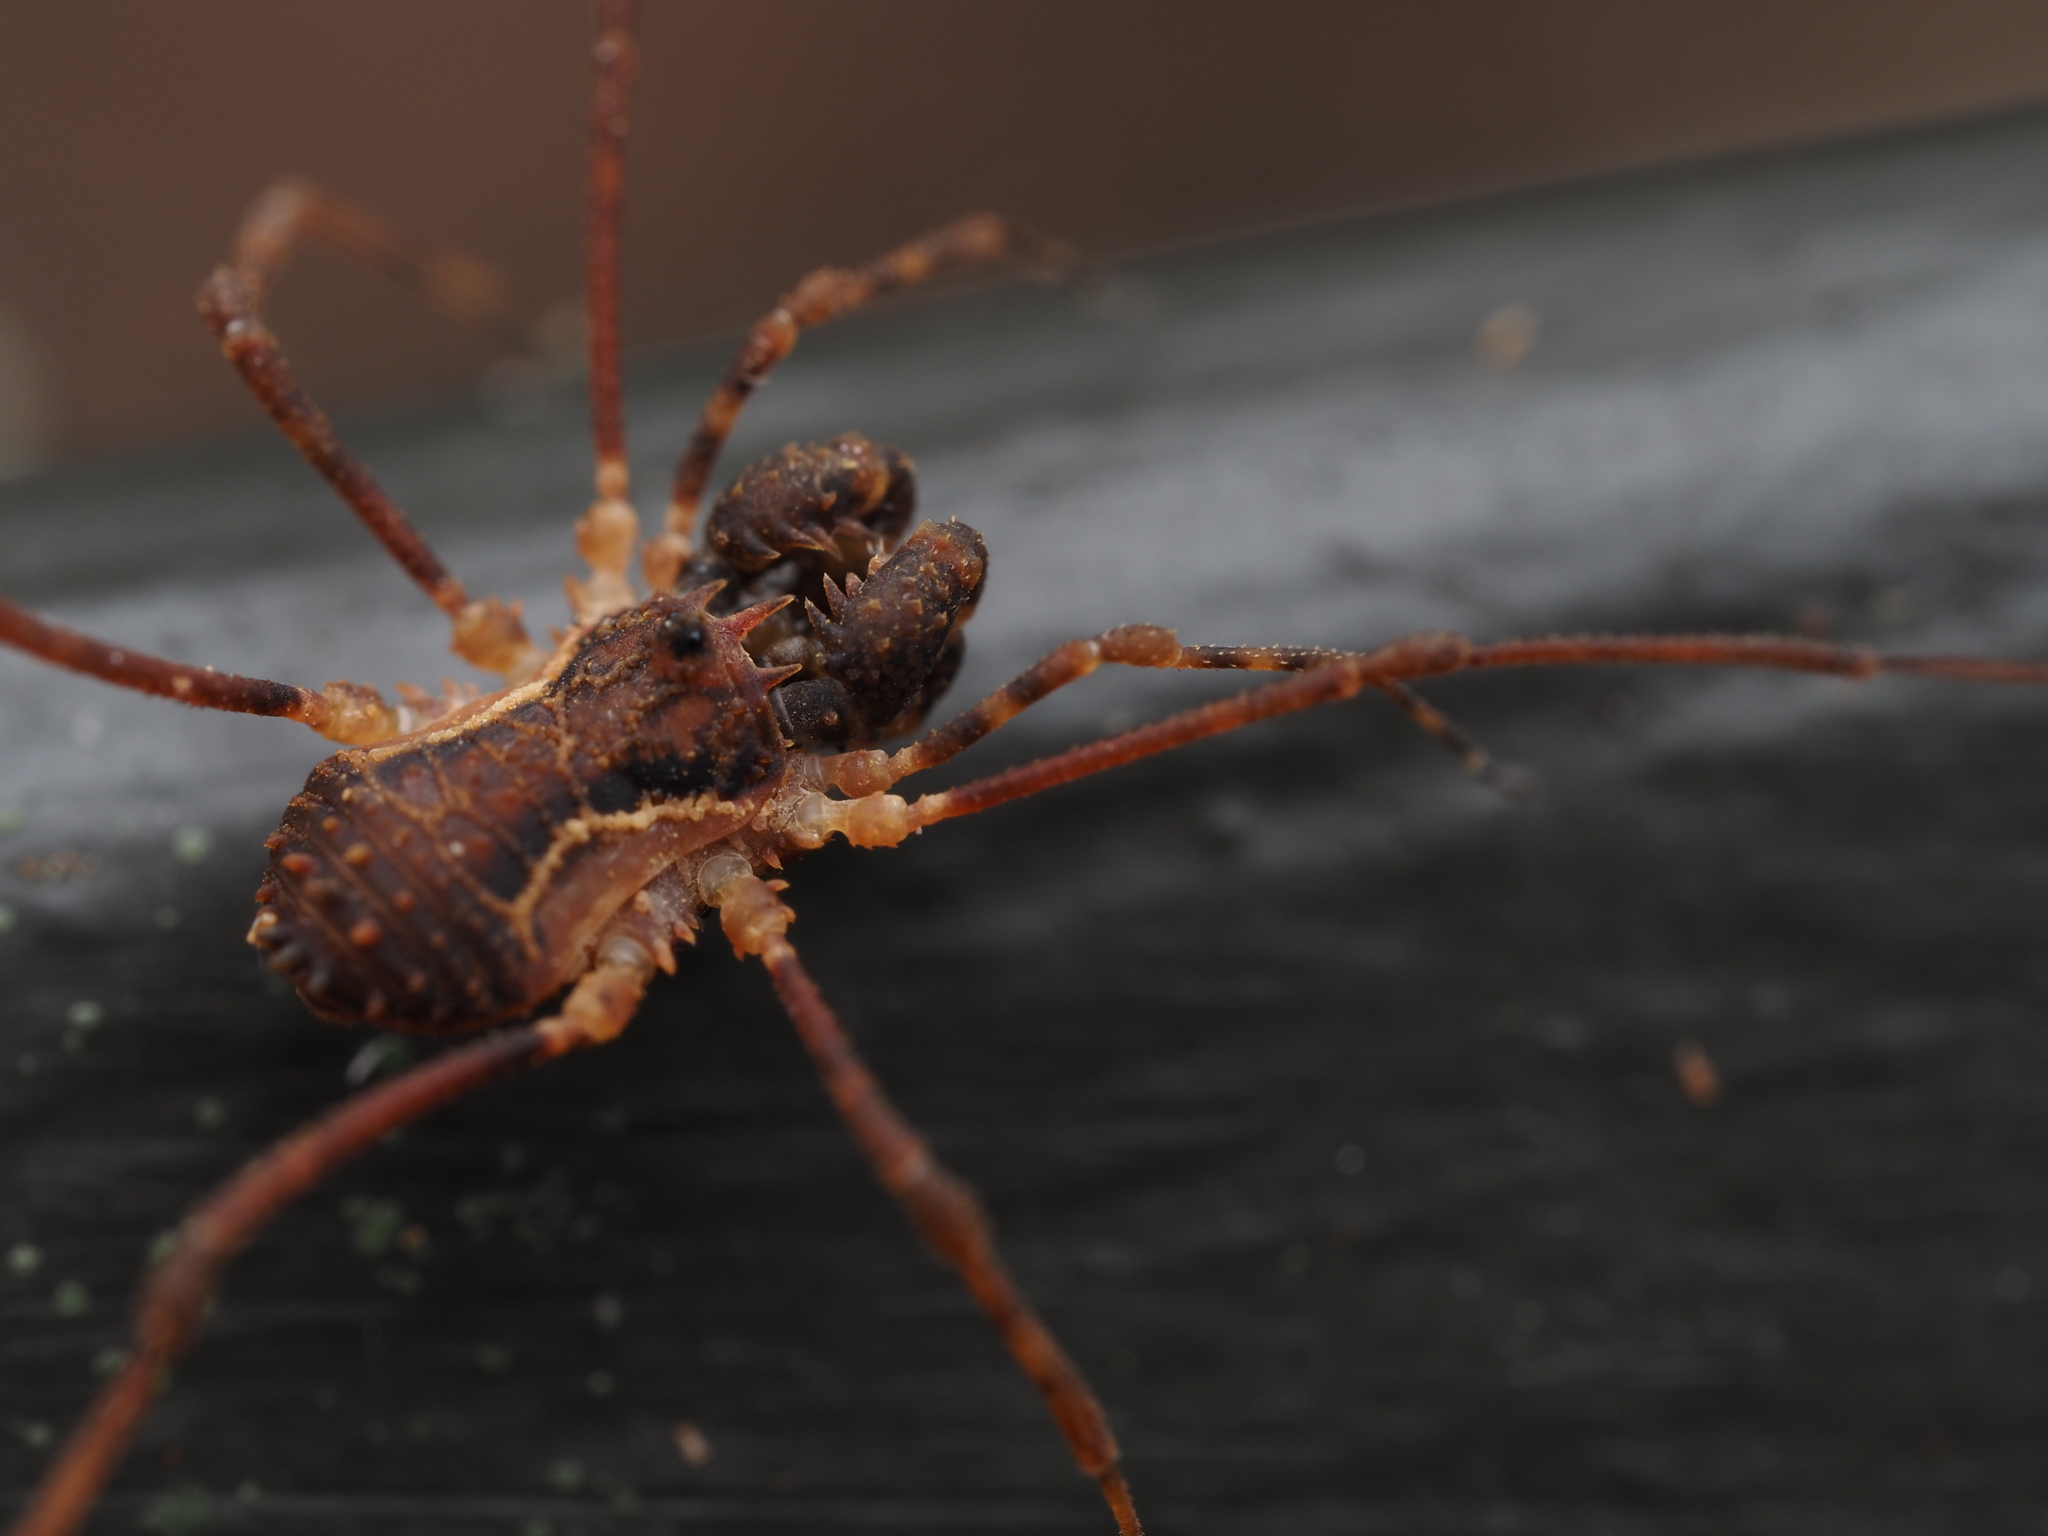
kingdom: Animalia
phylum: Arthropoda
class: Arachnida
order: Opiliones
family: Triaenonychidae
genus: Algidia
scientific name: Algidia chiltoni
